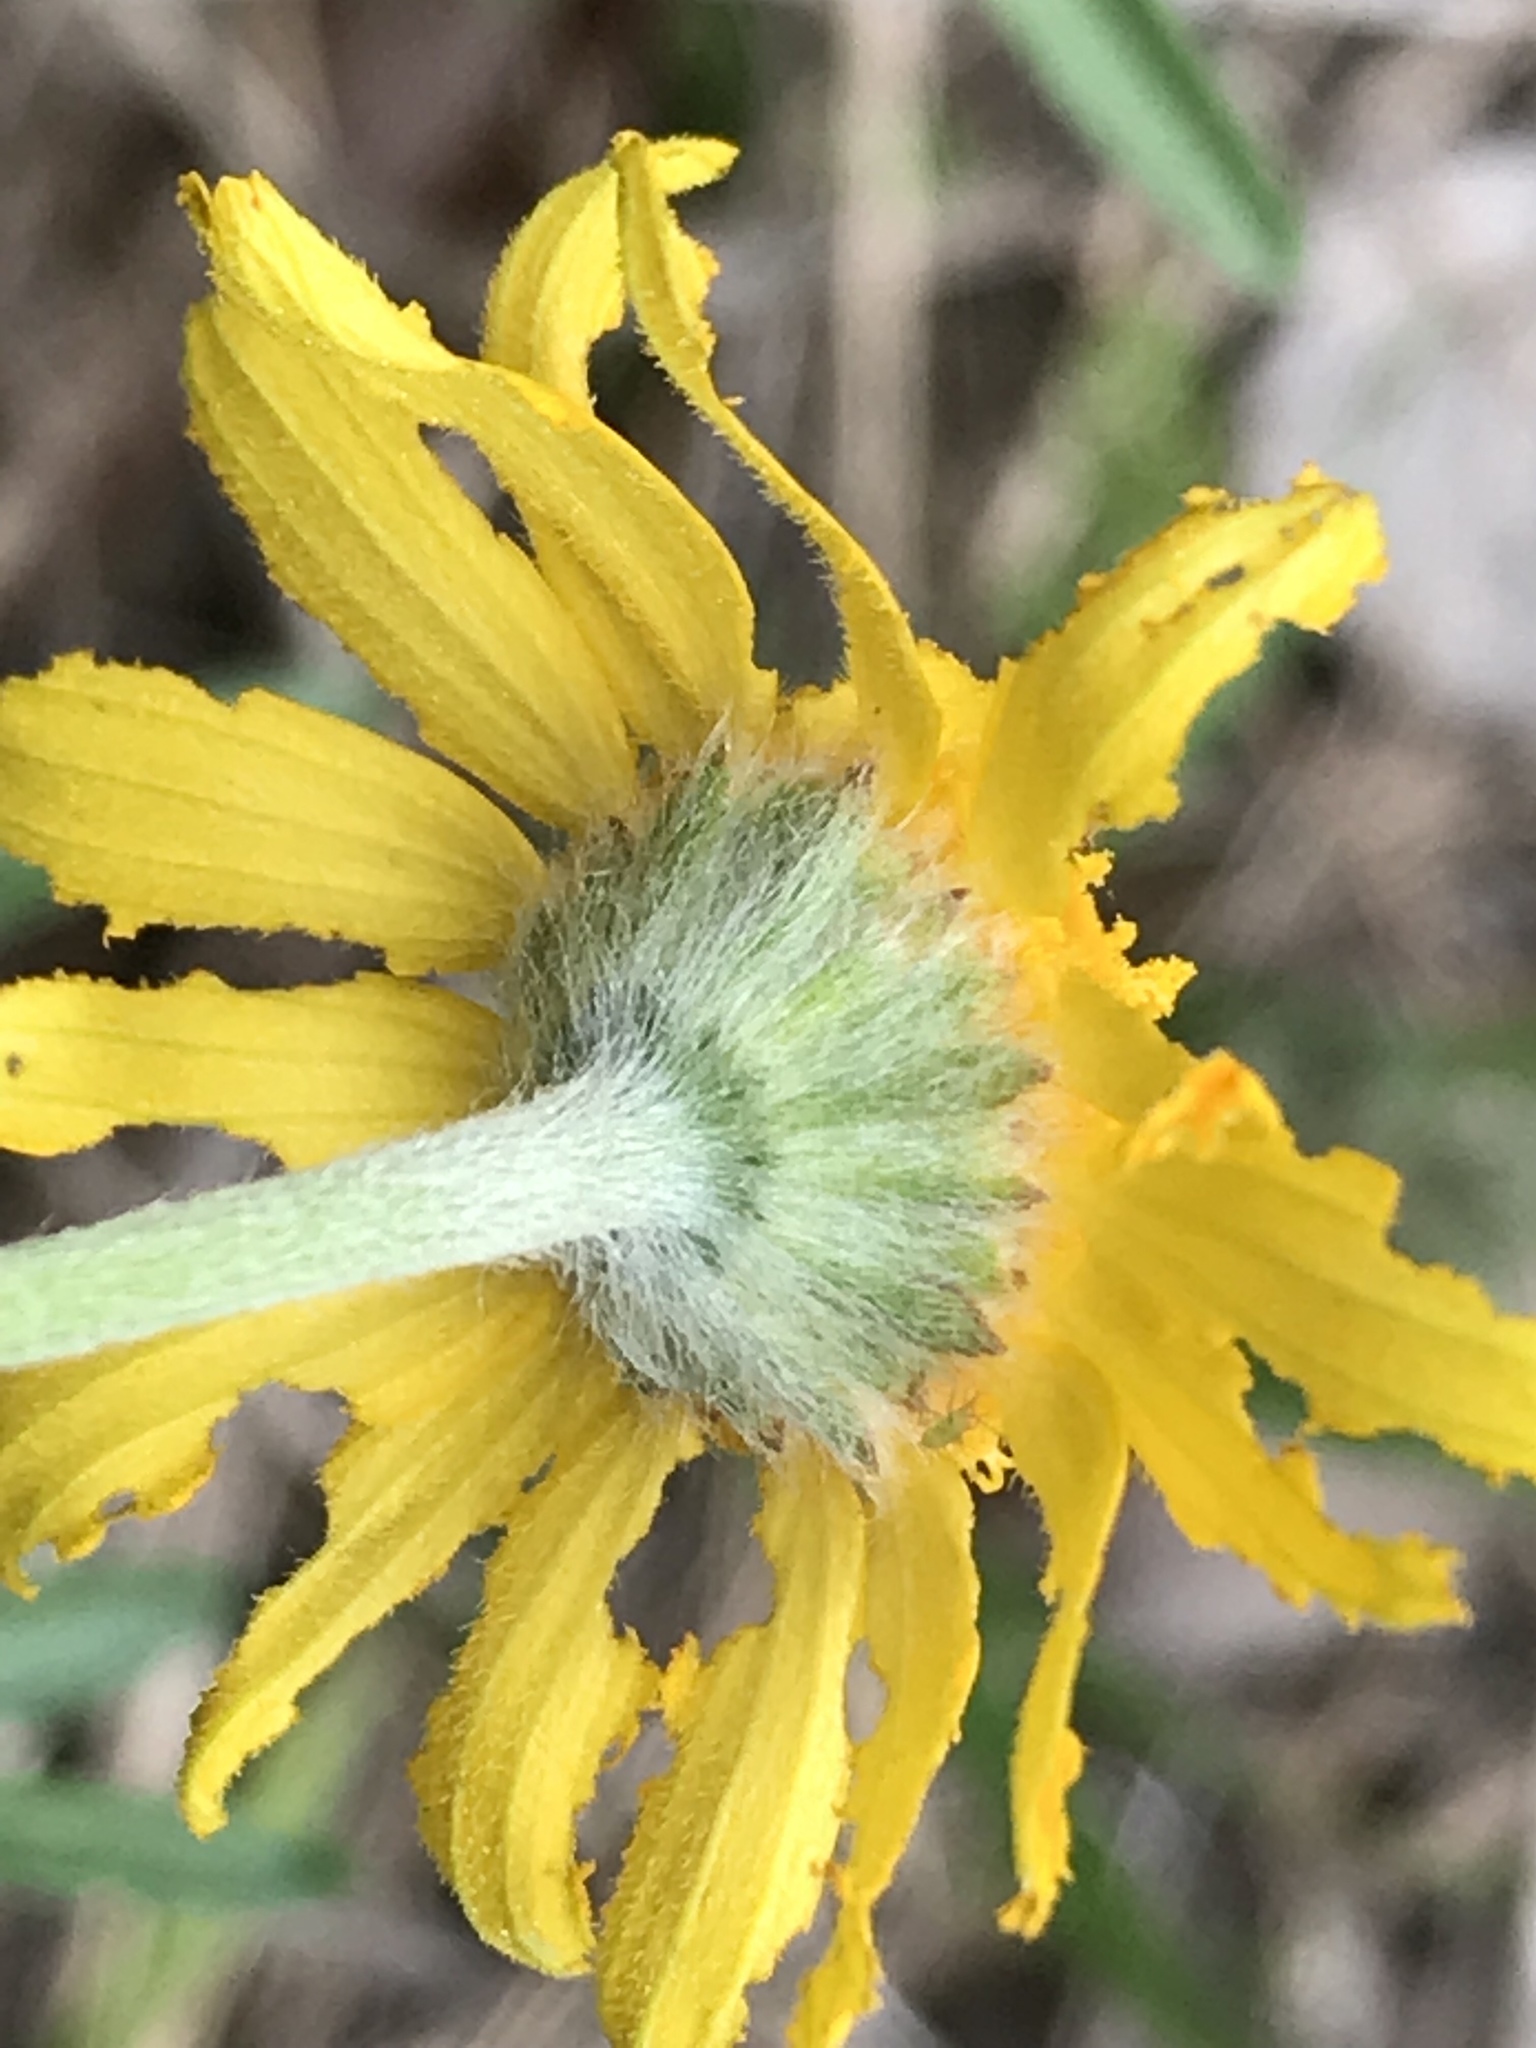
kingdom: Plantae
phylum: Tracheophyta
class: Magnoliopsida
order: Asterales
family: Asteraceae
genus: Tetraneuris
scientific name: Tetraneuris linearifolia
